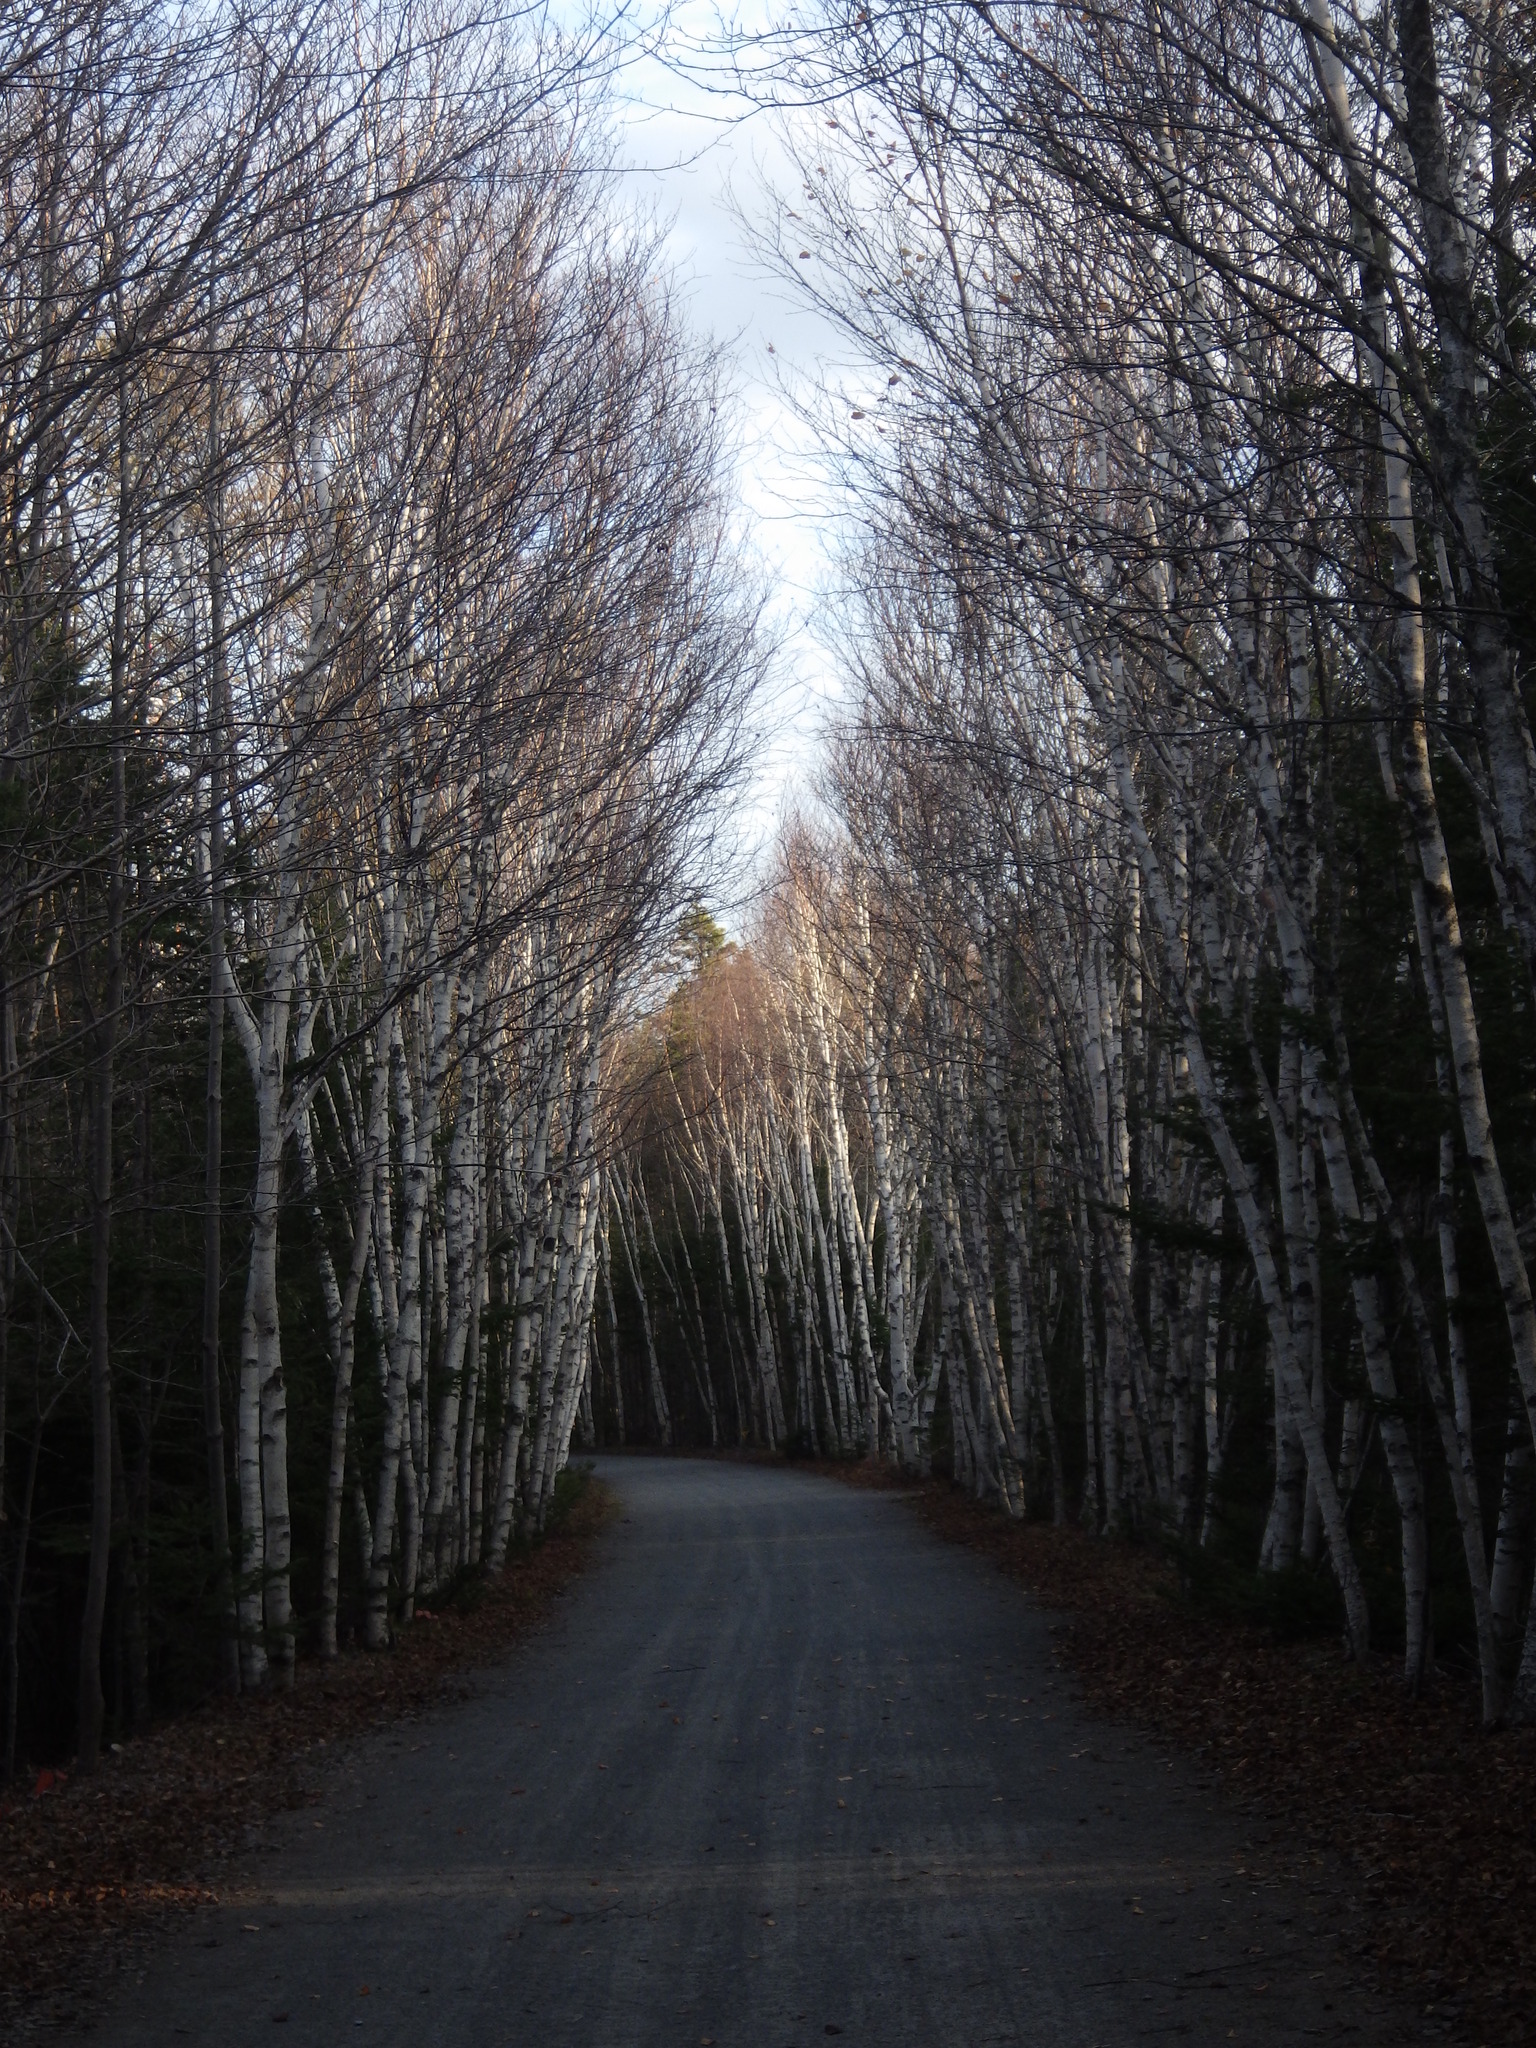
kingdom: Plantae
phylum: Tracheophyta
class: Magnoliopsida
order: Fagales
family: Betulaceae
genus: Betula
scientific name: Betula papyrifera
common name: Paper birch
